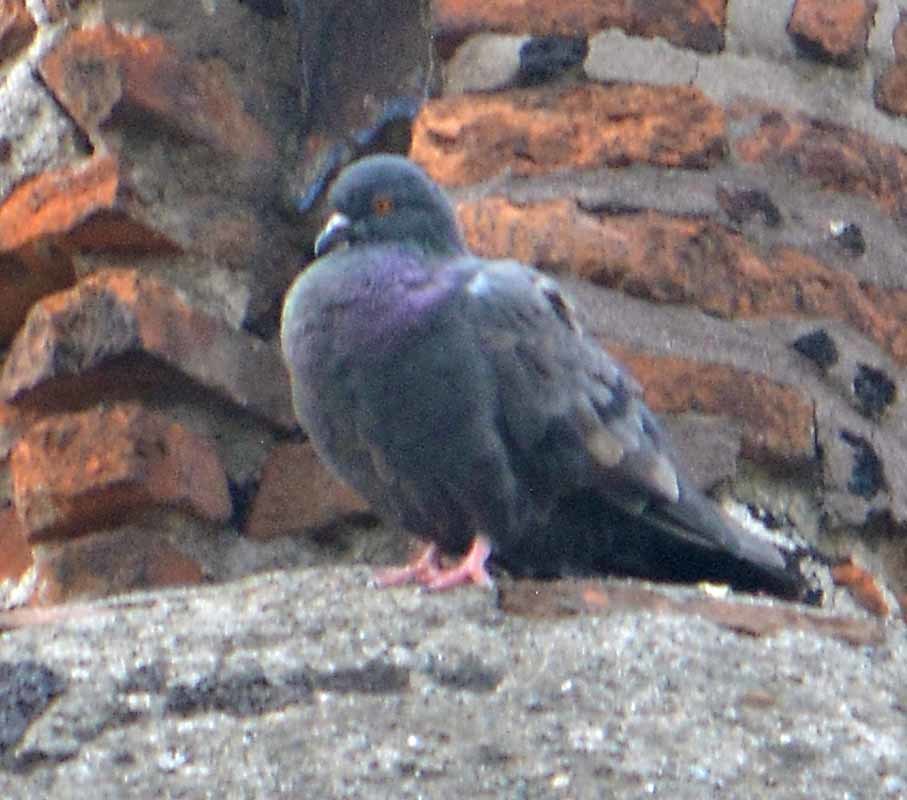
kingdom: Animalia
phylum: Chordata
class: Aves
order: Columbiformes
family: Columbidae
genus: Columba
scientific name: Columba livia
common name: Rock pigeon
